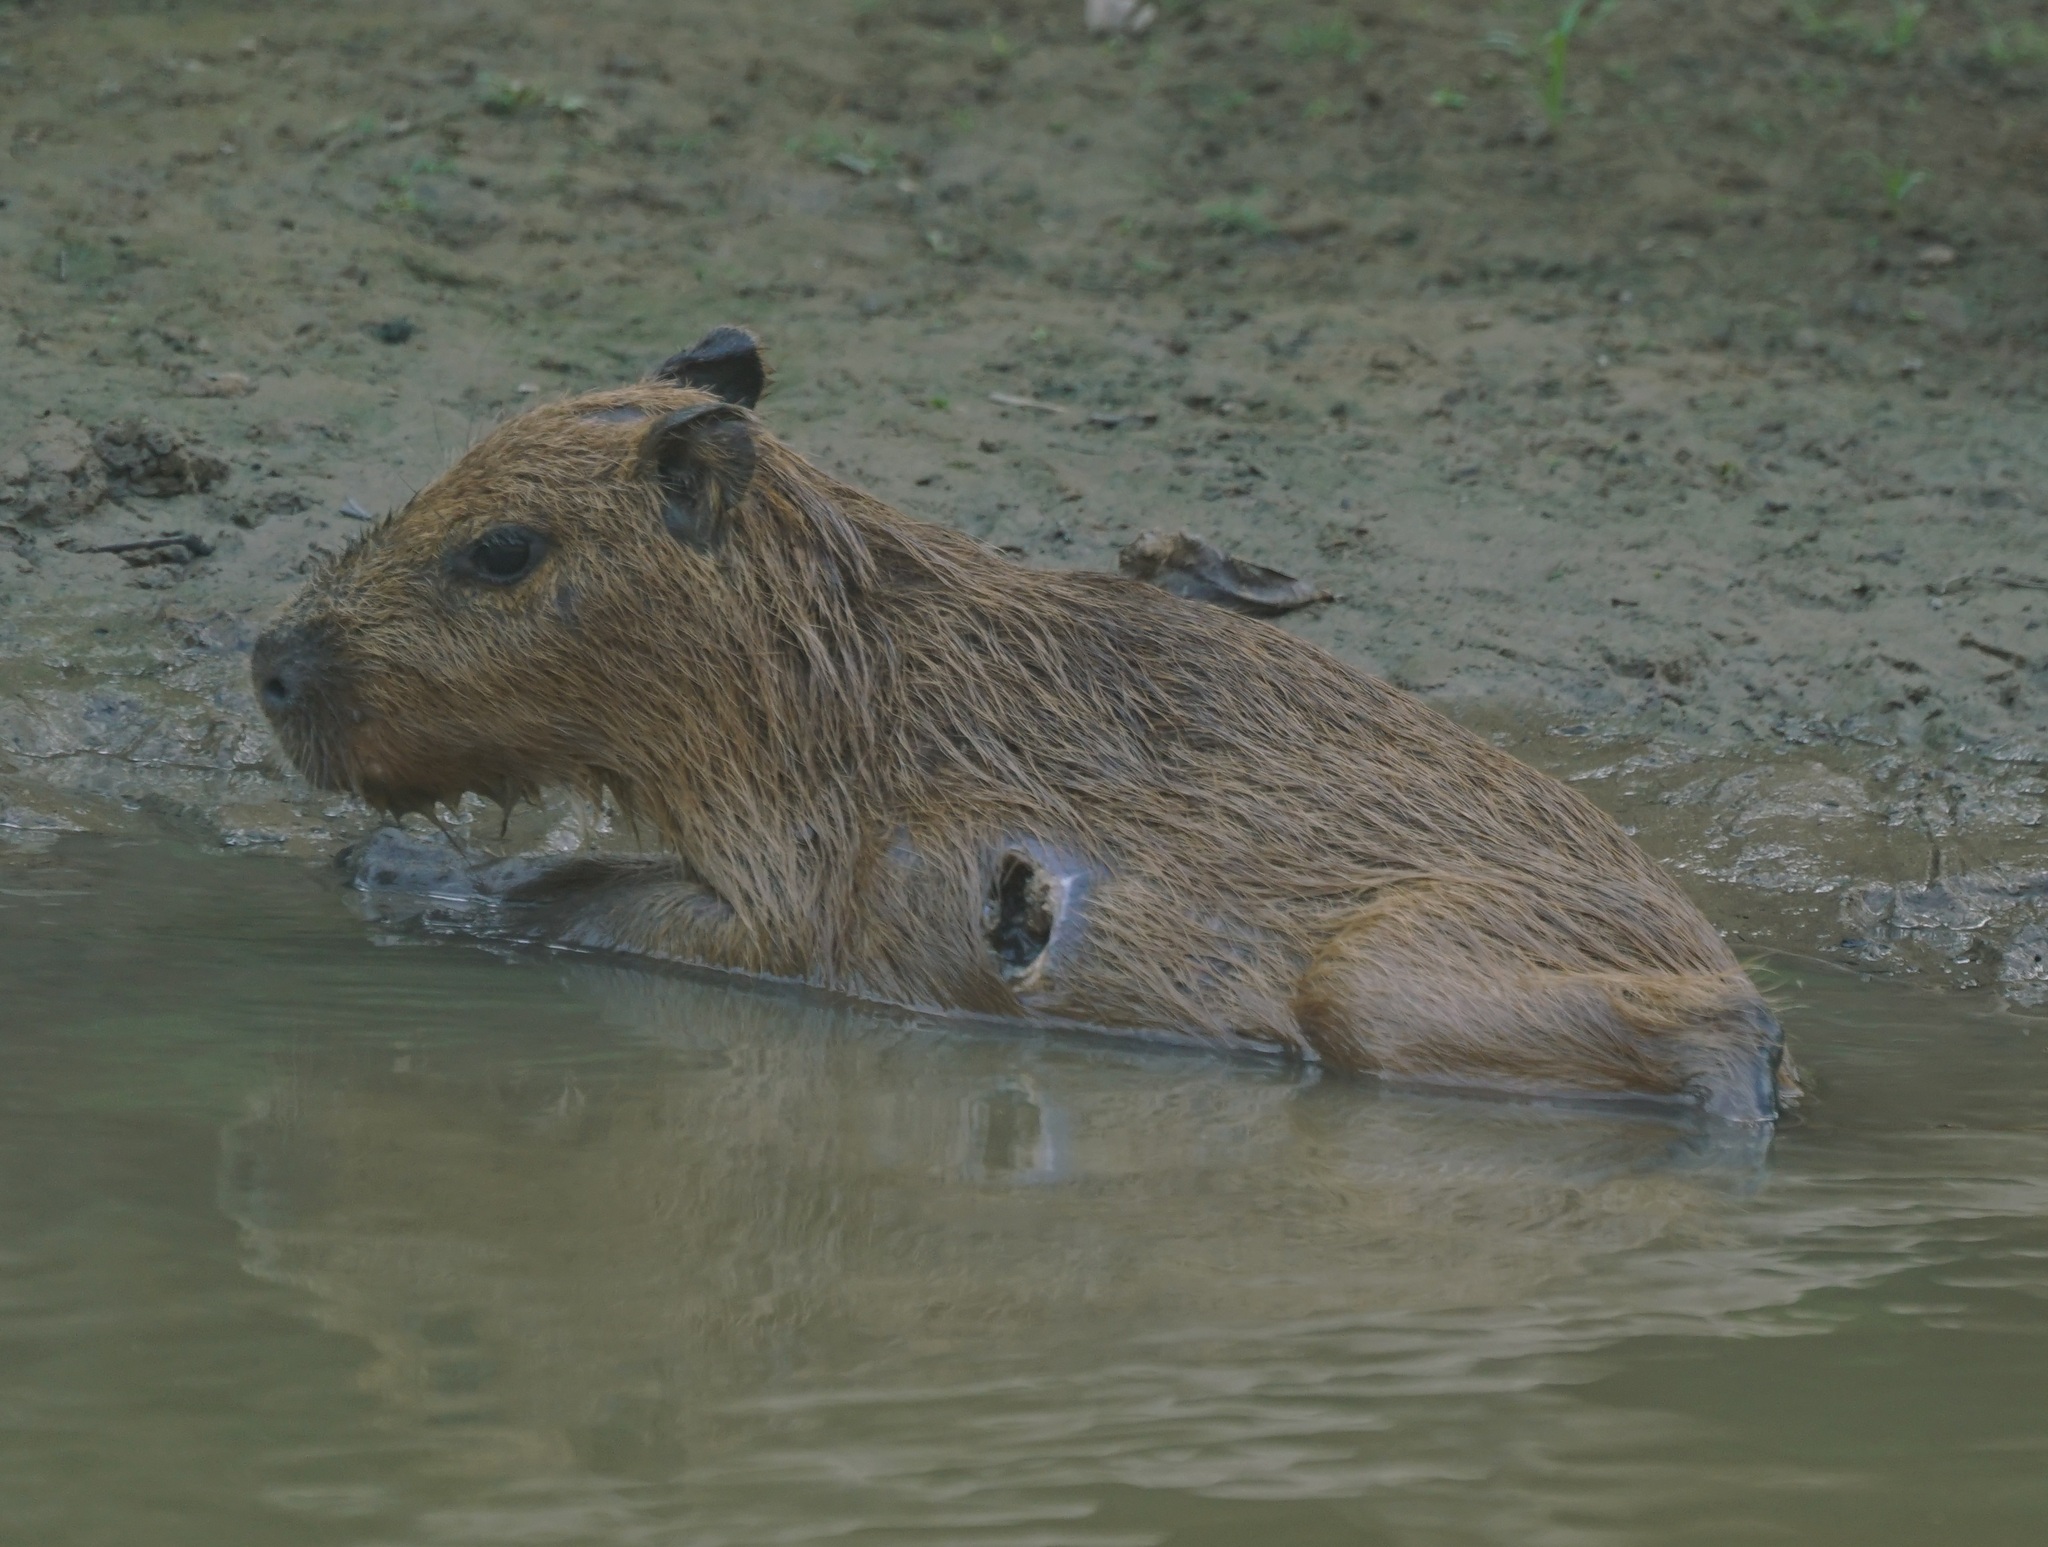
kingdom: Animalia
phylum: Chordata
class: Mammalia
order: Rodentia
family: Caviidae
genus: Hydrochoerus
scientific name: Hydrochoerus hydrochaeris
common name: Capybara
